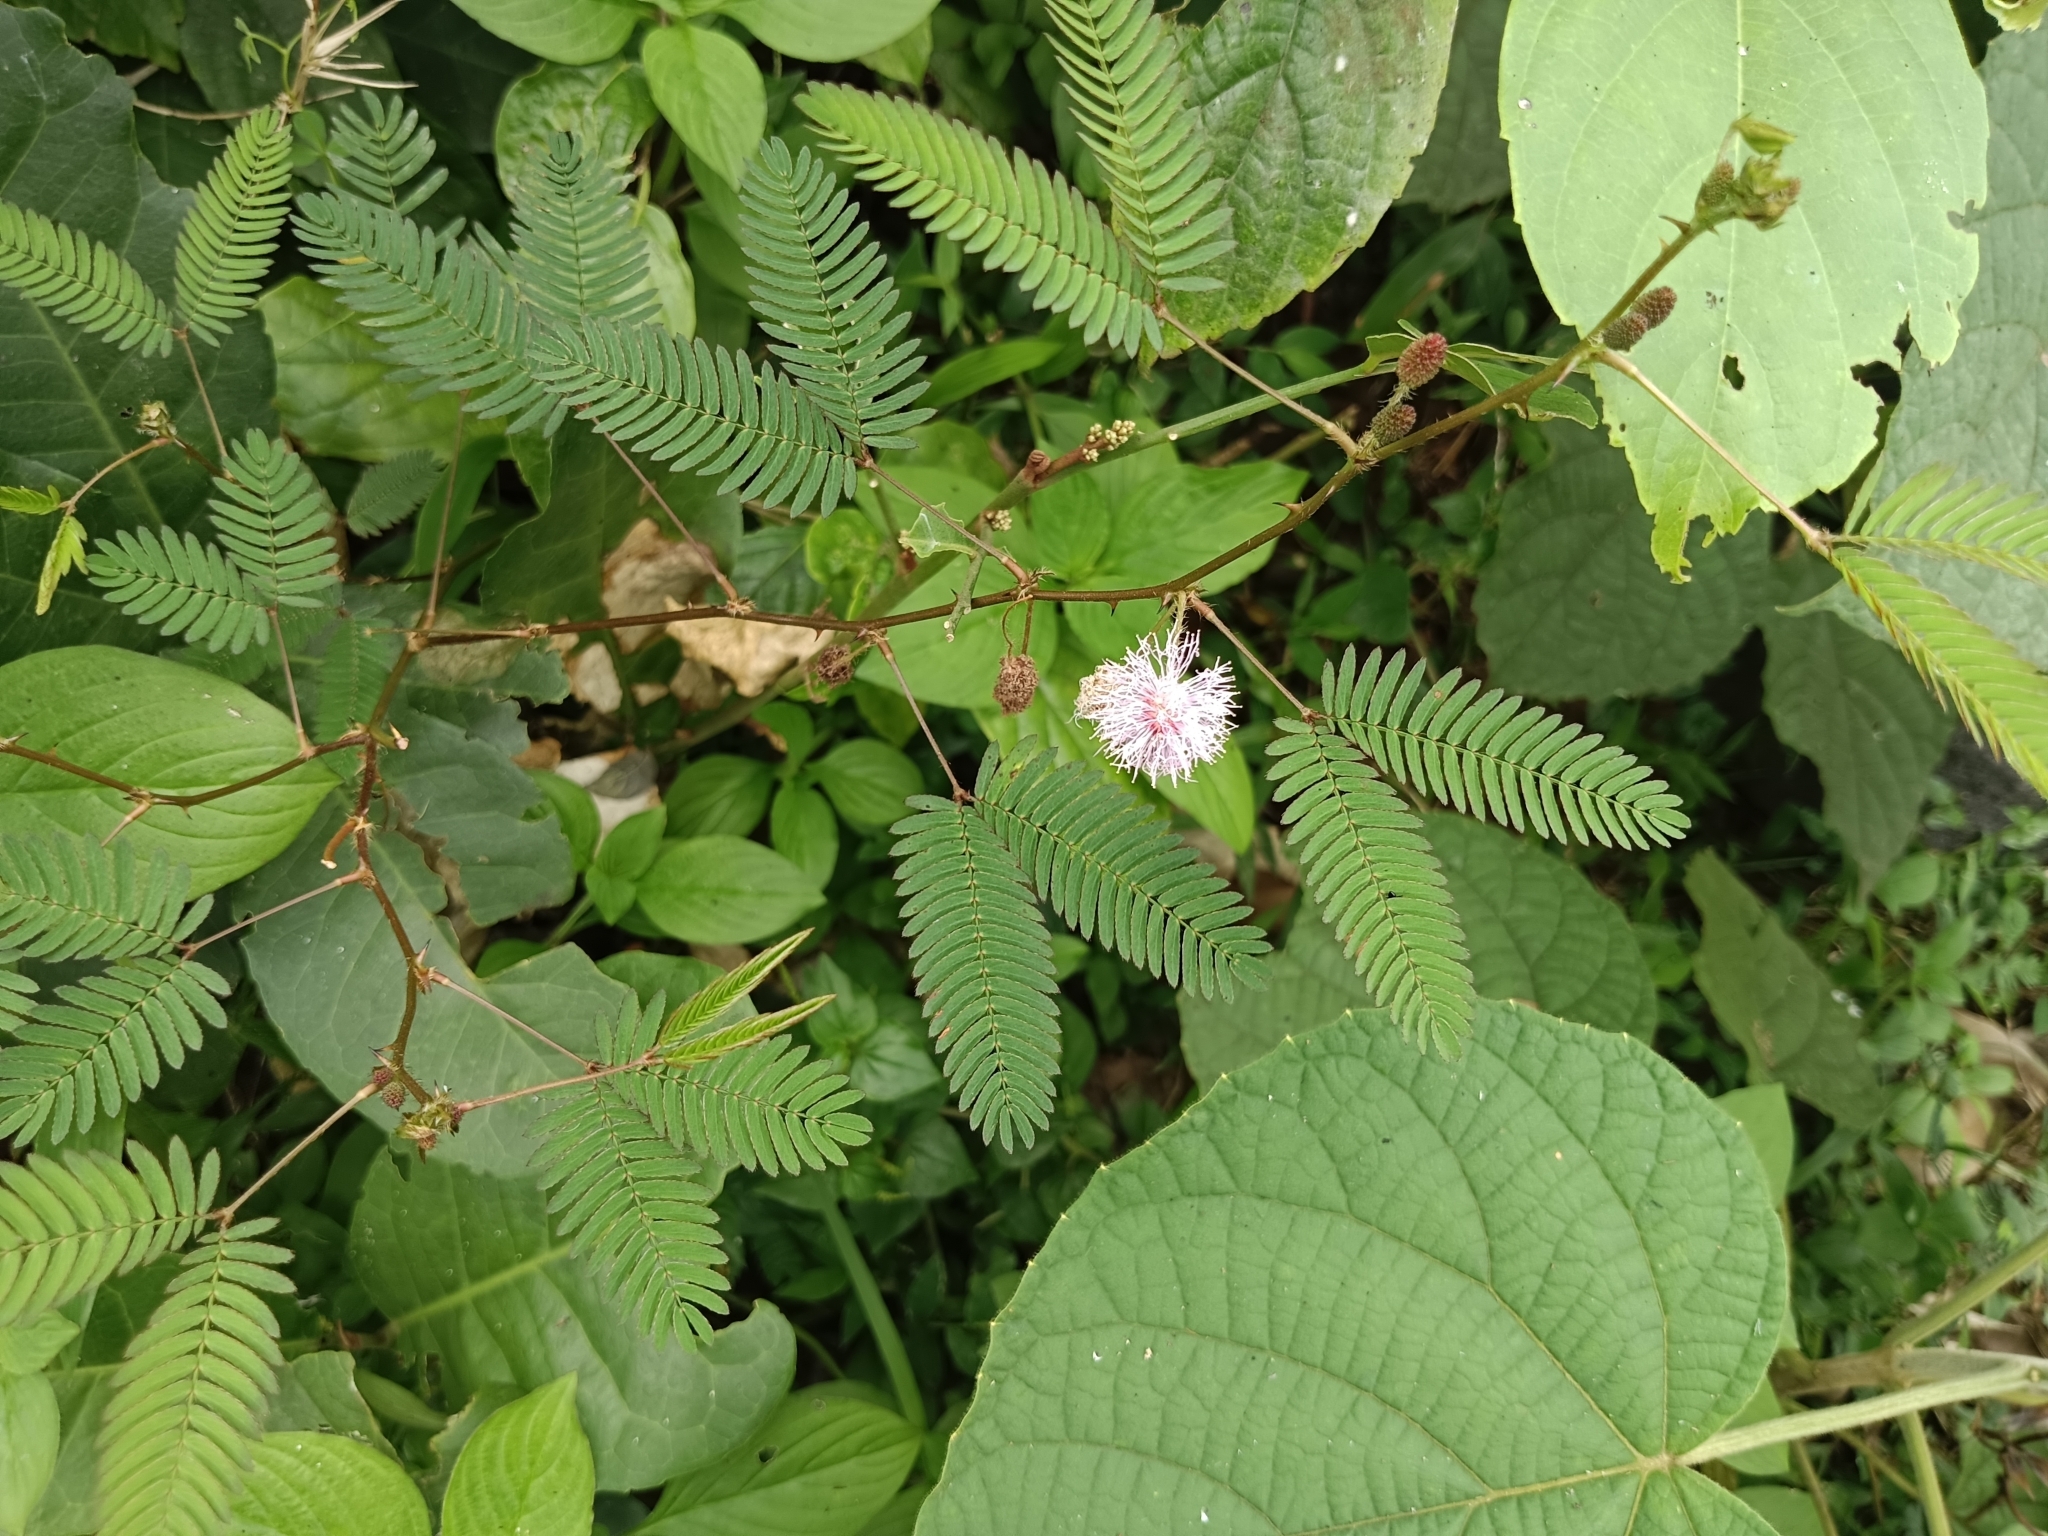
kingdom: Plantae
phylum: Tracheophyta
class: Magnoliopsida
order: Fabales
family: Fabaceae
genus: Mimosa
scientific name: Mimosa pudica
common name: Sensitive plant
